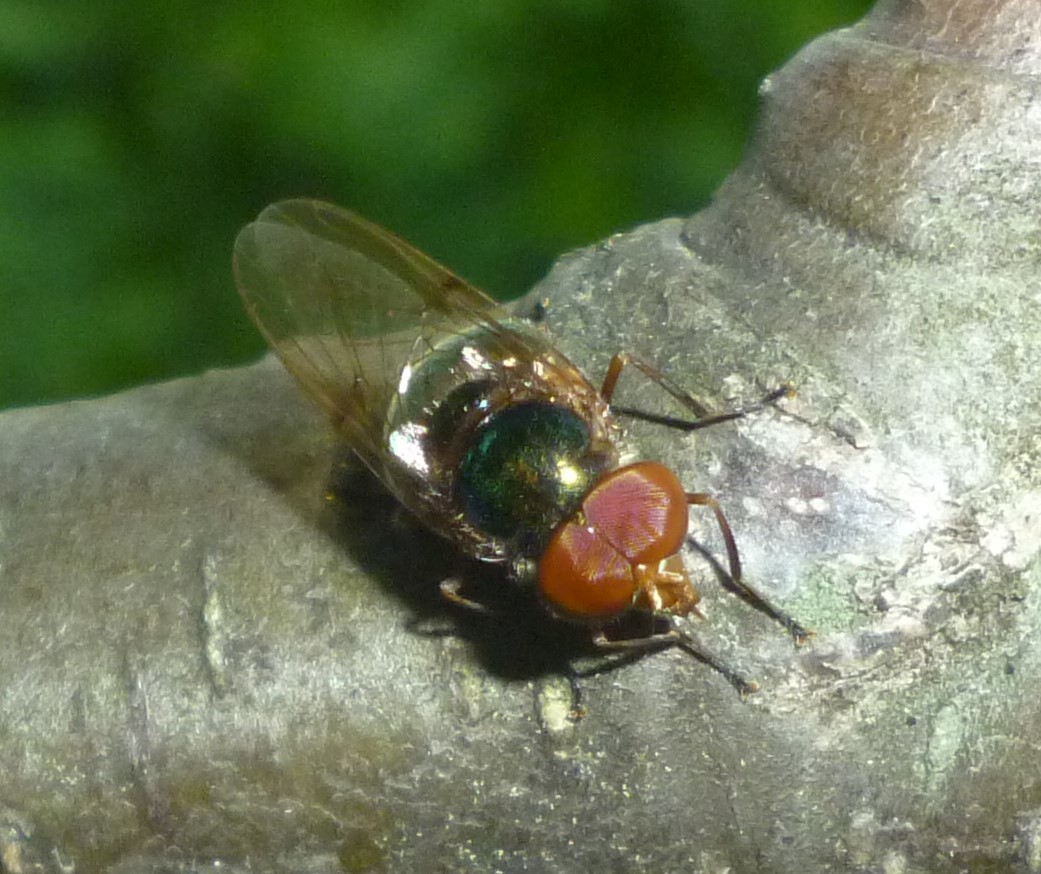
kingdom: Animalia
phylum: Arthropoda
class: Insecta
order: Diptera
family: Syrphidae
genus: Copestylum
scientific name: Copestylum vesicularium
